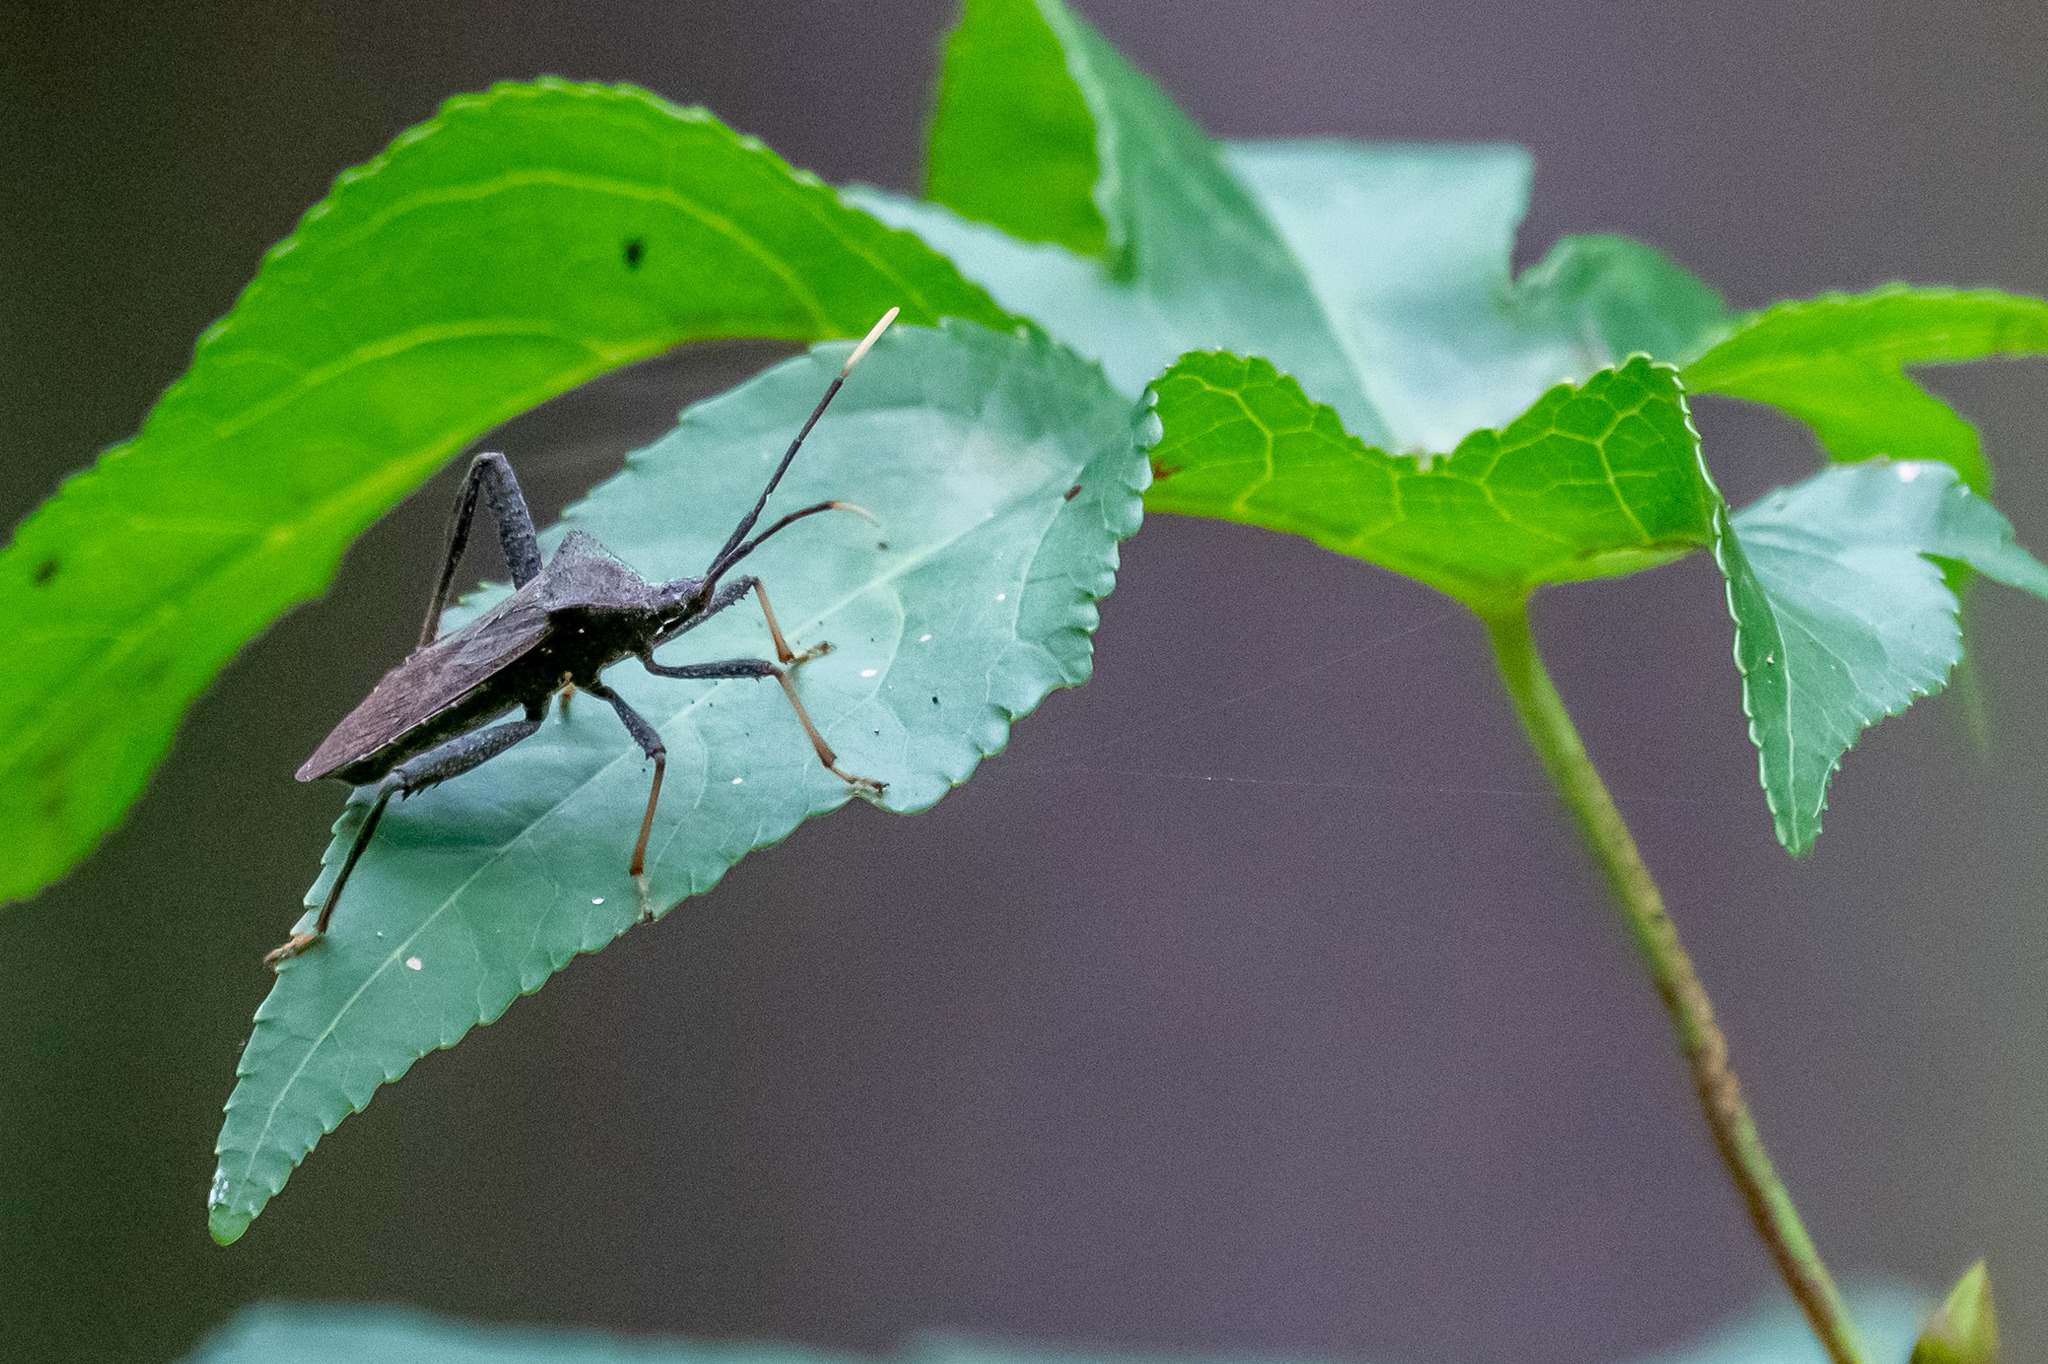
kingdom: Animalia
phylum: Arthropoda
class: Insecta
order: Hemiptera
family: Coreidae
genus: Acanthocephala
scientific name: Acanthocephala terminalis
